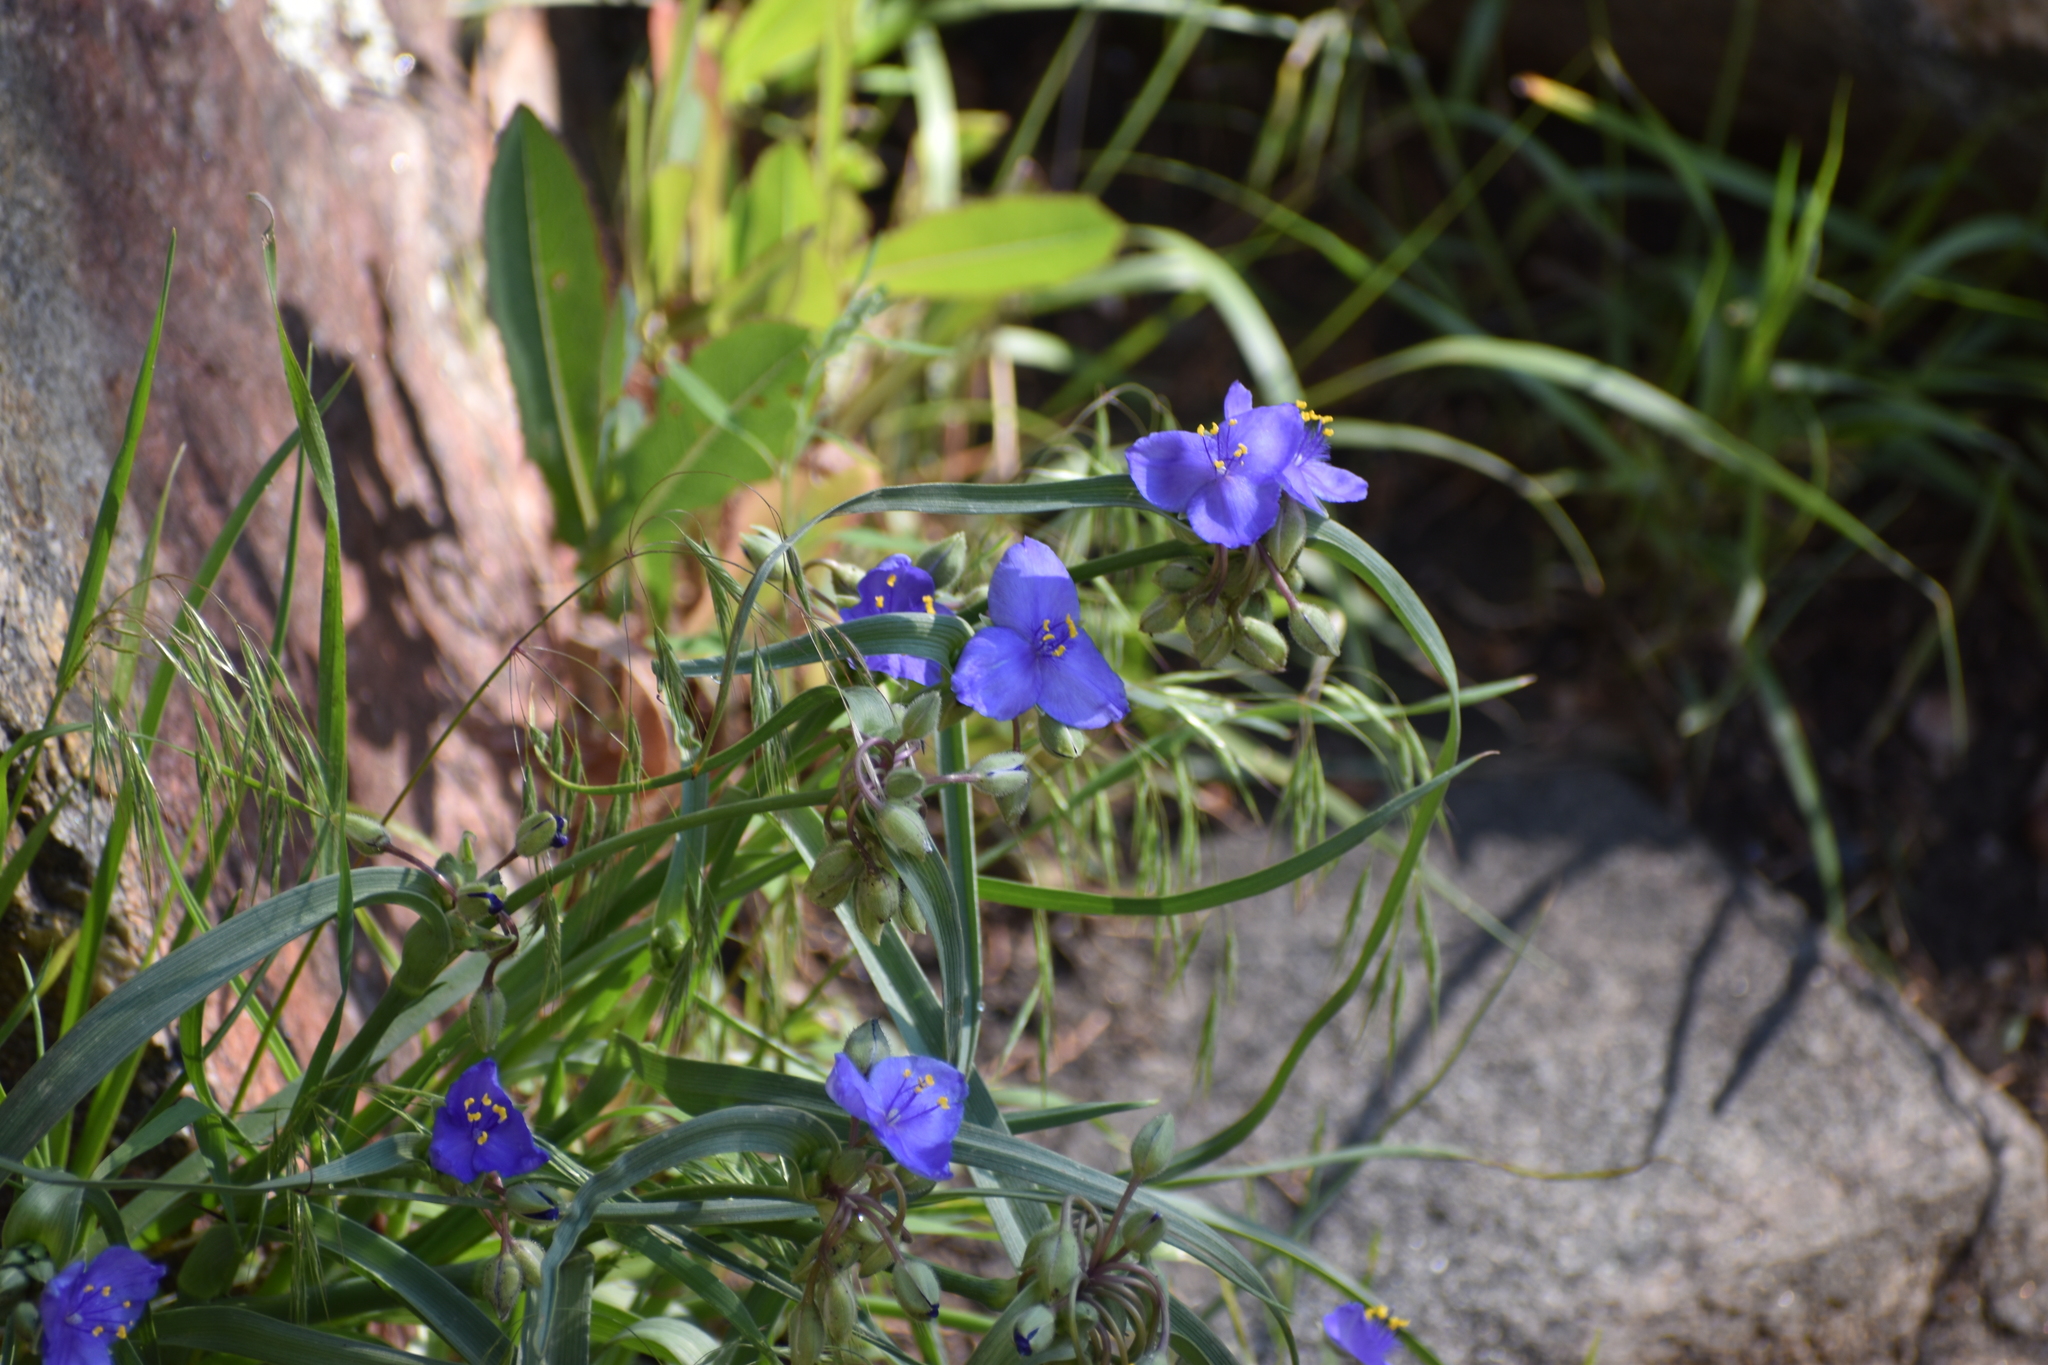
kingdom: Plantae
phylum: Tracheophyta
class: Liliopsida
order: Commelinales
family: Commelinaceae
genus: Tradescantia
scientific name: Tradescantia occidentalis
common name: Prairie spiderwort
